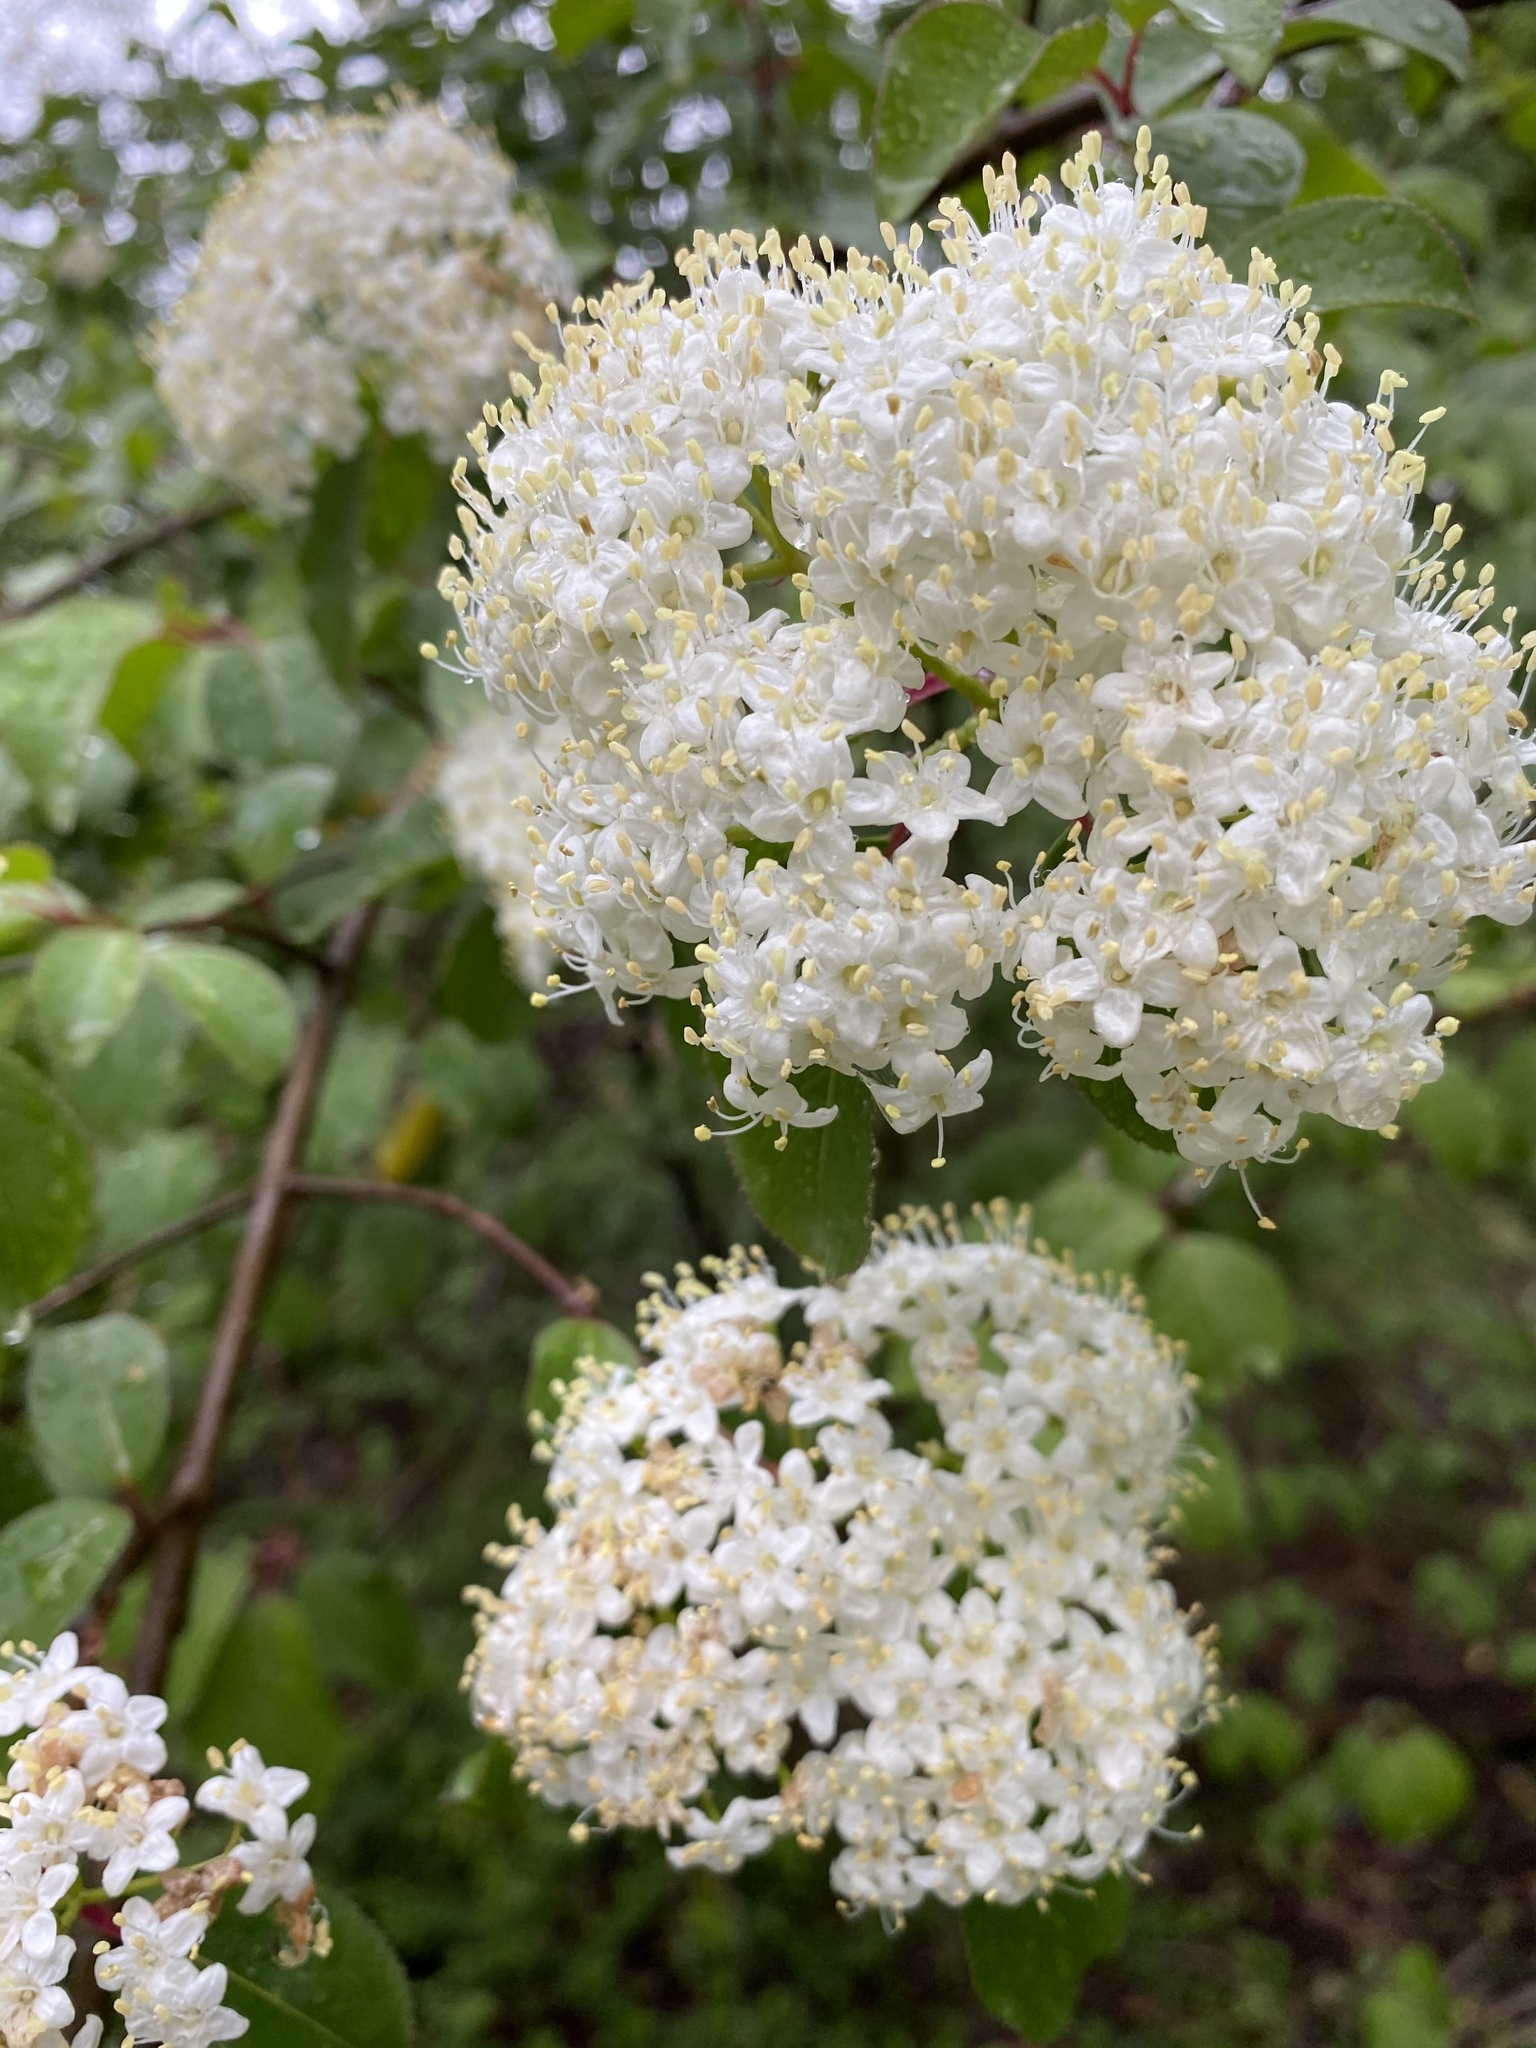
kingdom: Plantae
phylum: Tracheophyta
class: Magnoliopsida
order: Dipsacales
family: Viburnaceae
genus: Viburnum
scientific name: Viburnum prunifolium
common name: Black haw
